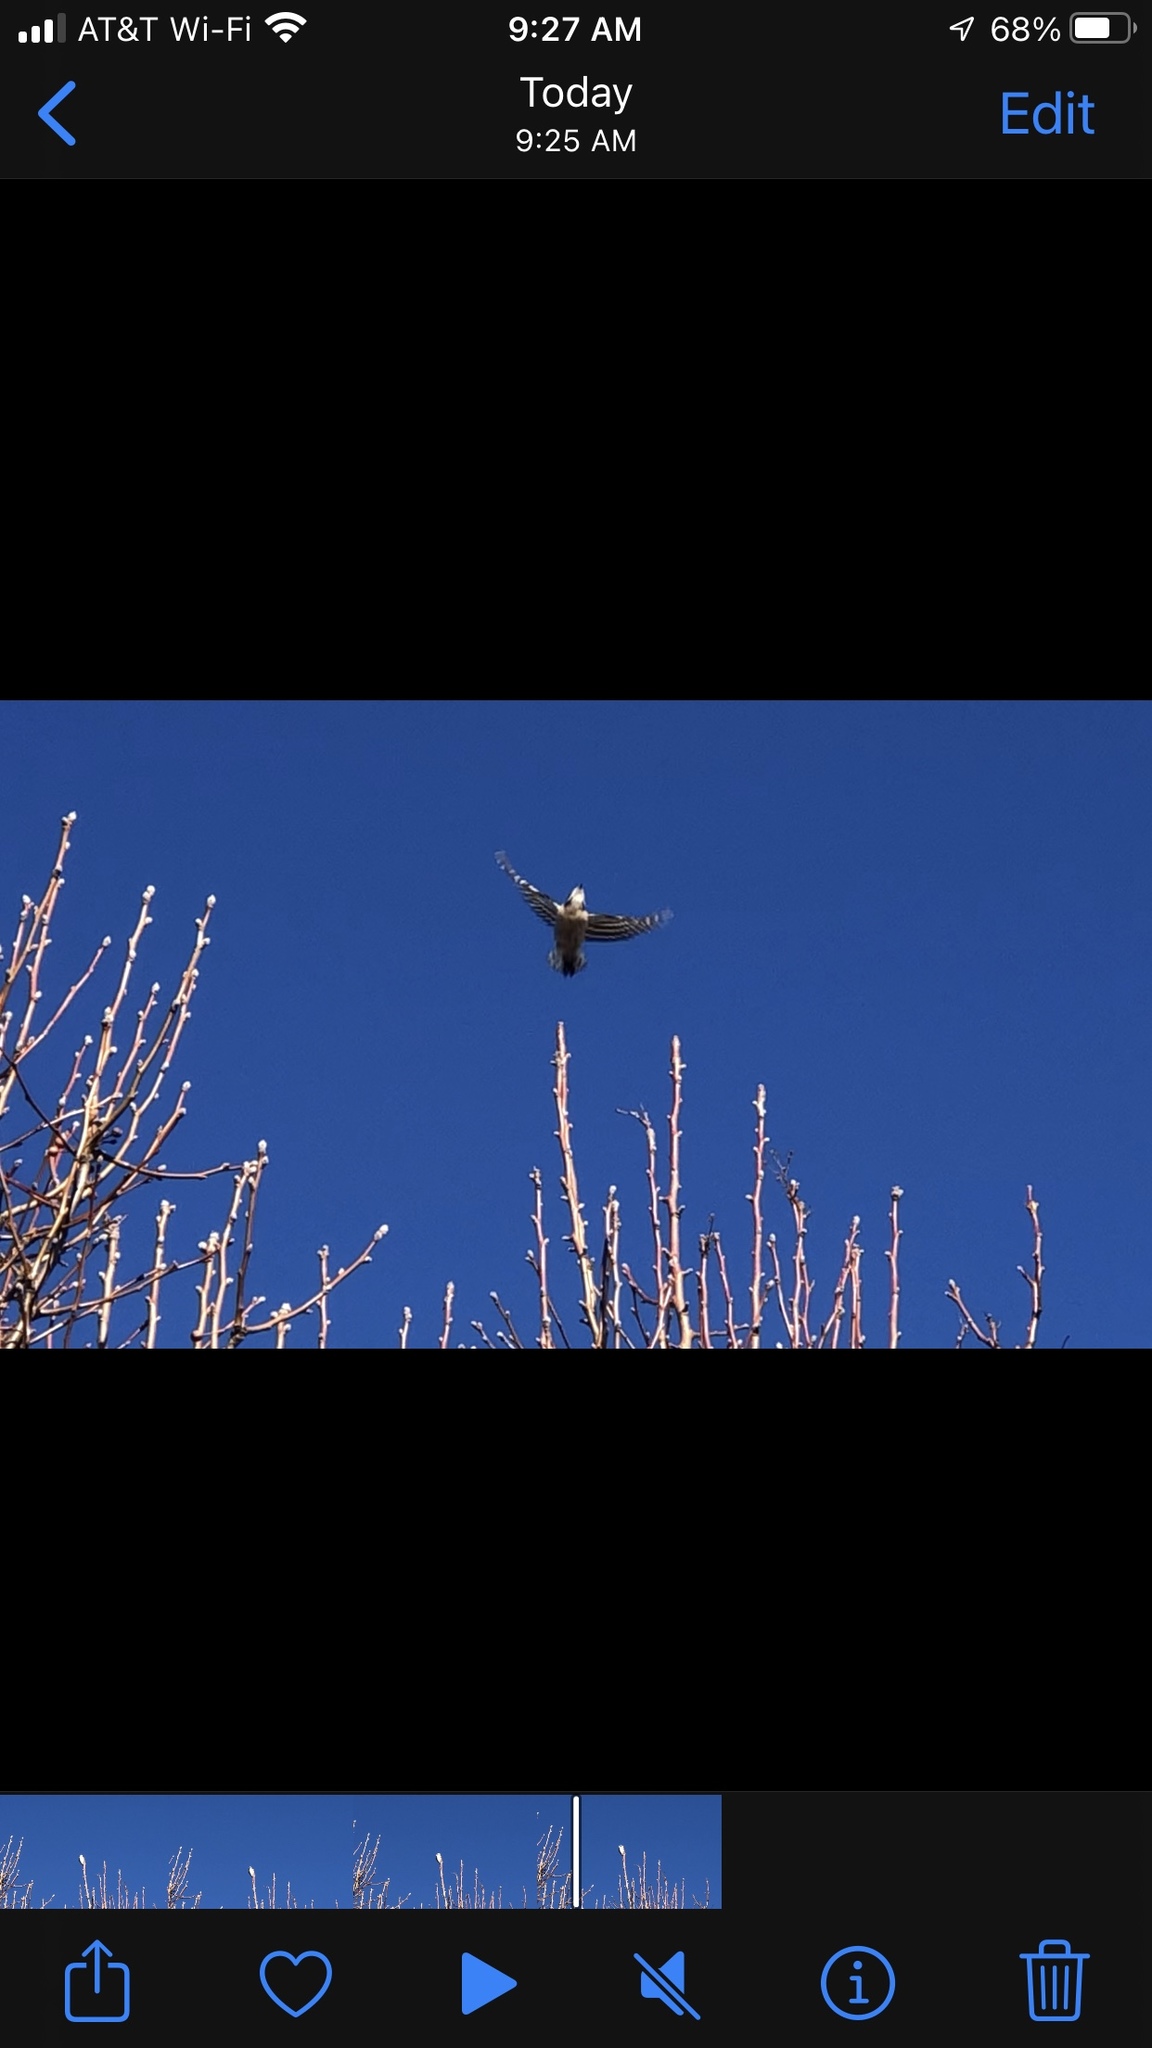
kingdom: Animalia
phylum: Chordata
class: Aves
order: Piciformes
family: Picidae
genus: Dryobates
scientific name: Dryobates pubescens
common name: Downy woodpecker
